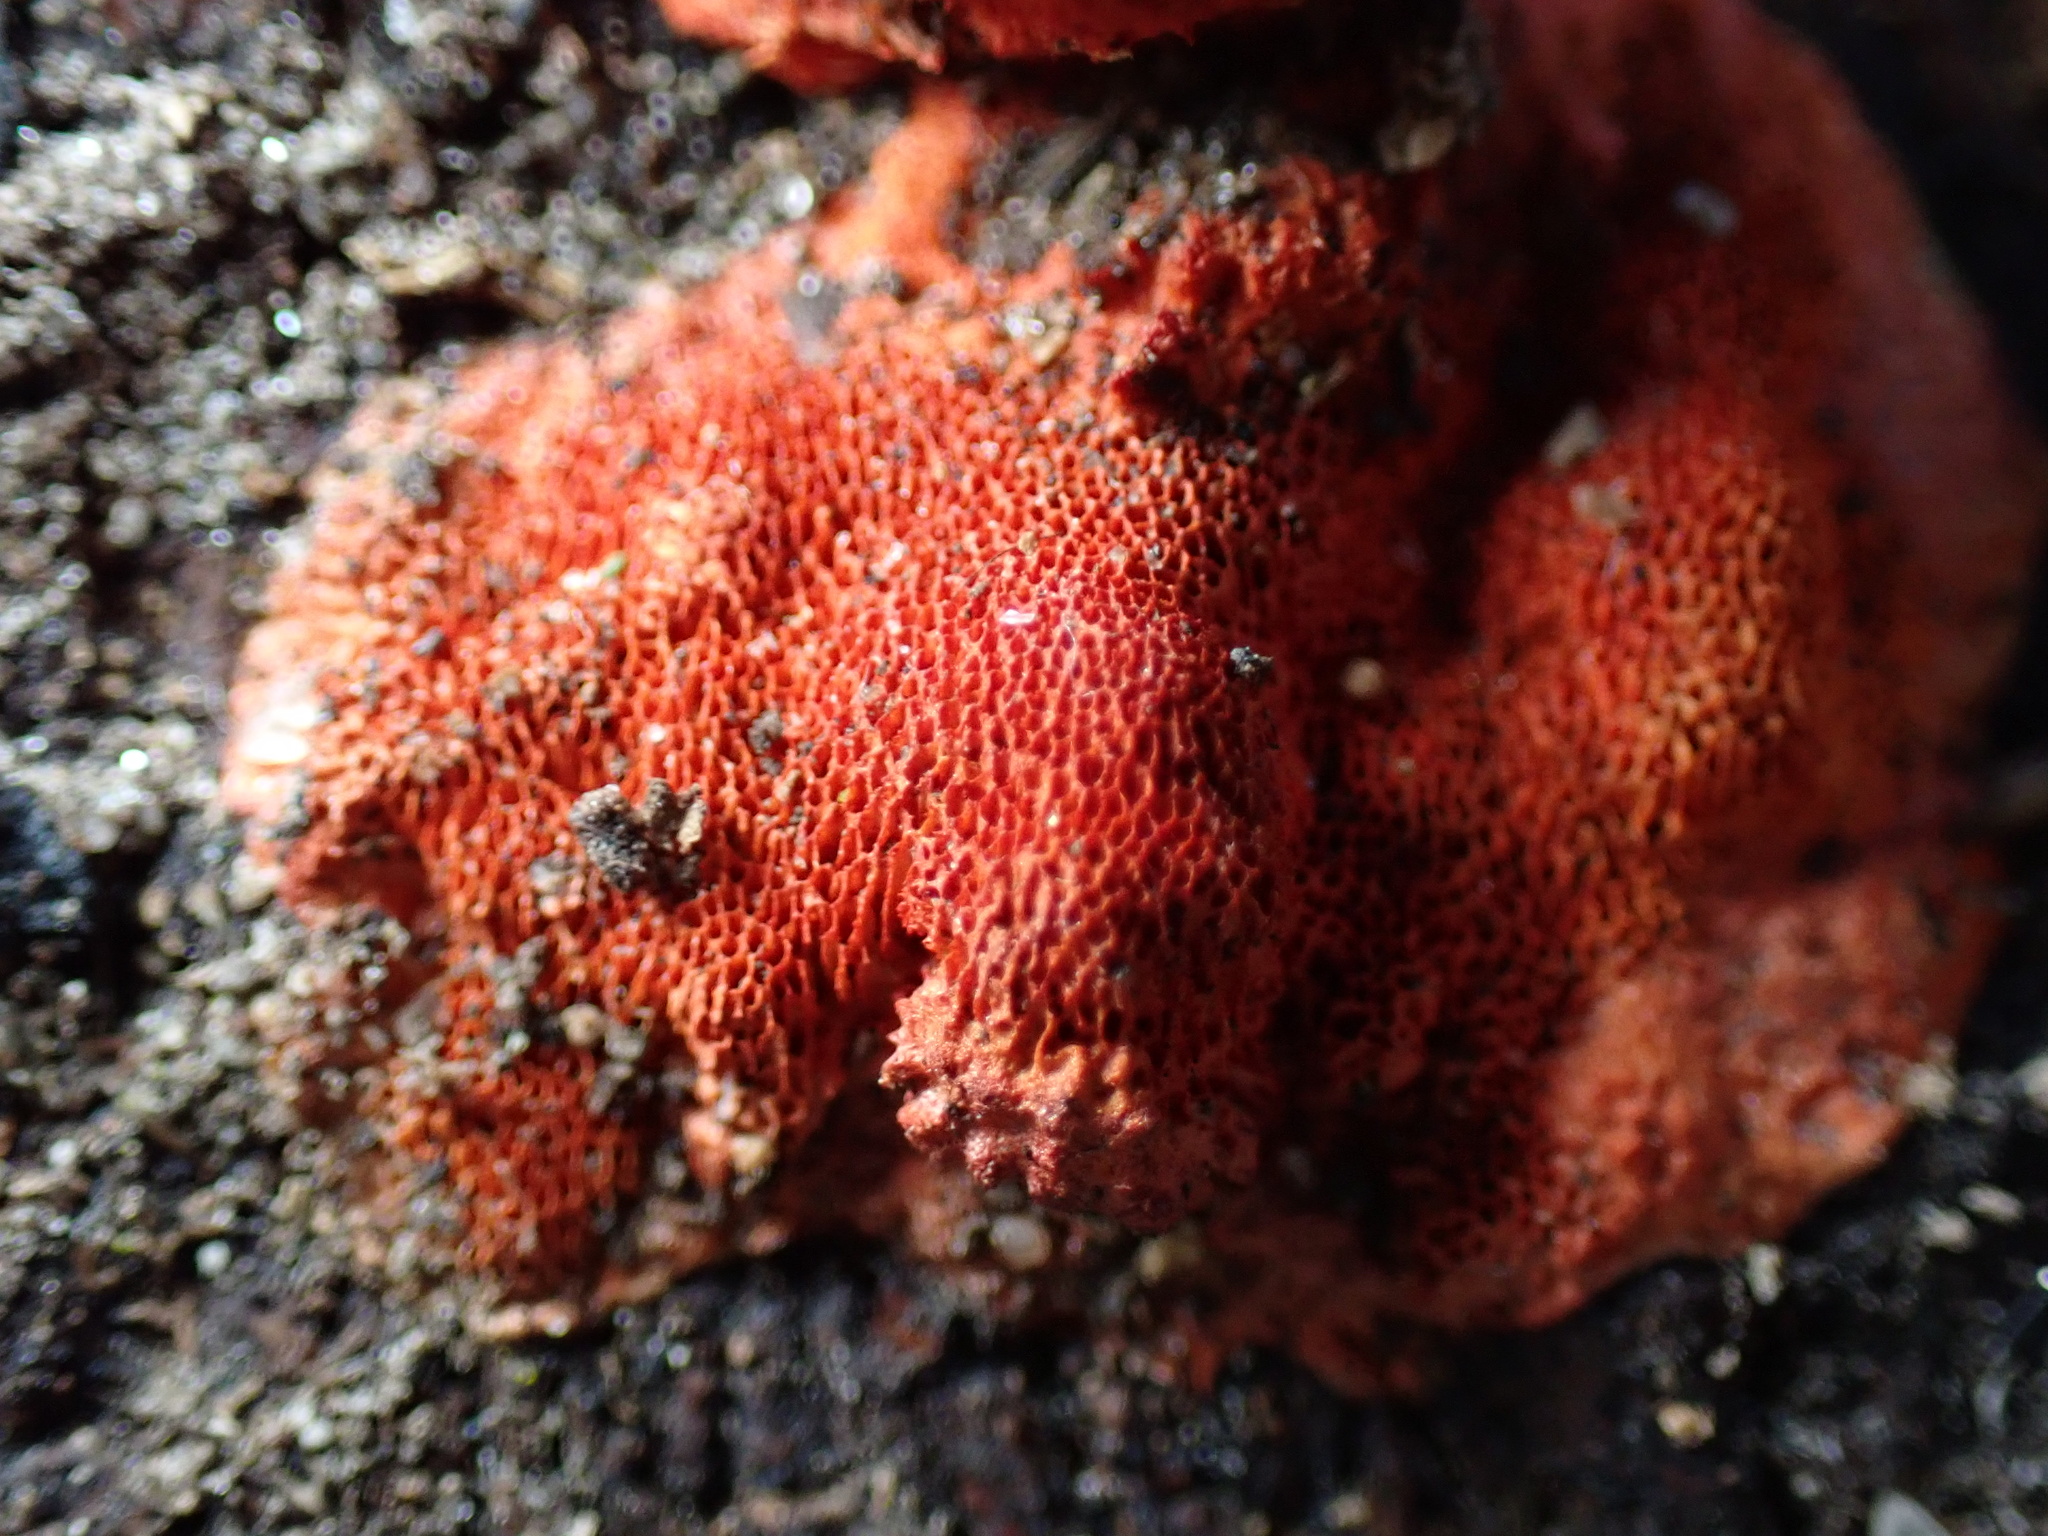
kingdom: Fungi
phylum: Basidiomycota
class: Agaricomycetes
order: Polyporales
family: Polyporaceae
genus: Trametes
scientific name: Trametes cinnabarina
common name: Northern cinnabar polypore
